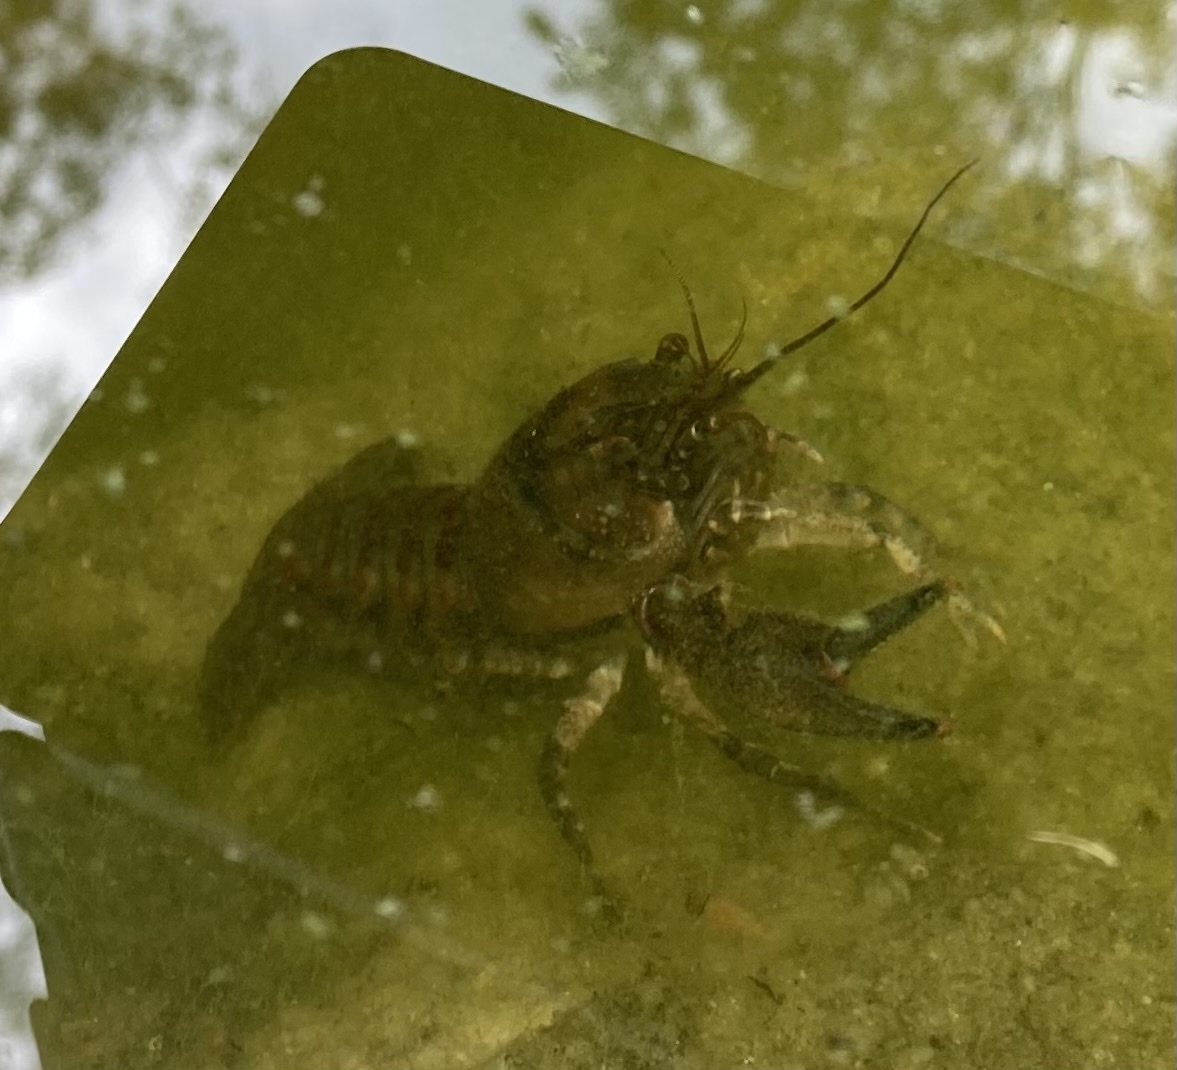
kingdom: Animalia
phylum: Arthropoda
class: Malacostraca
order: Decapoda
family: Cambaridae
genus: Faxonius
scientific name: Faxonius limosus
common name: American crayfish
